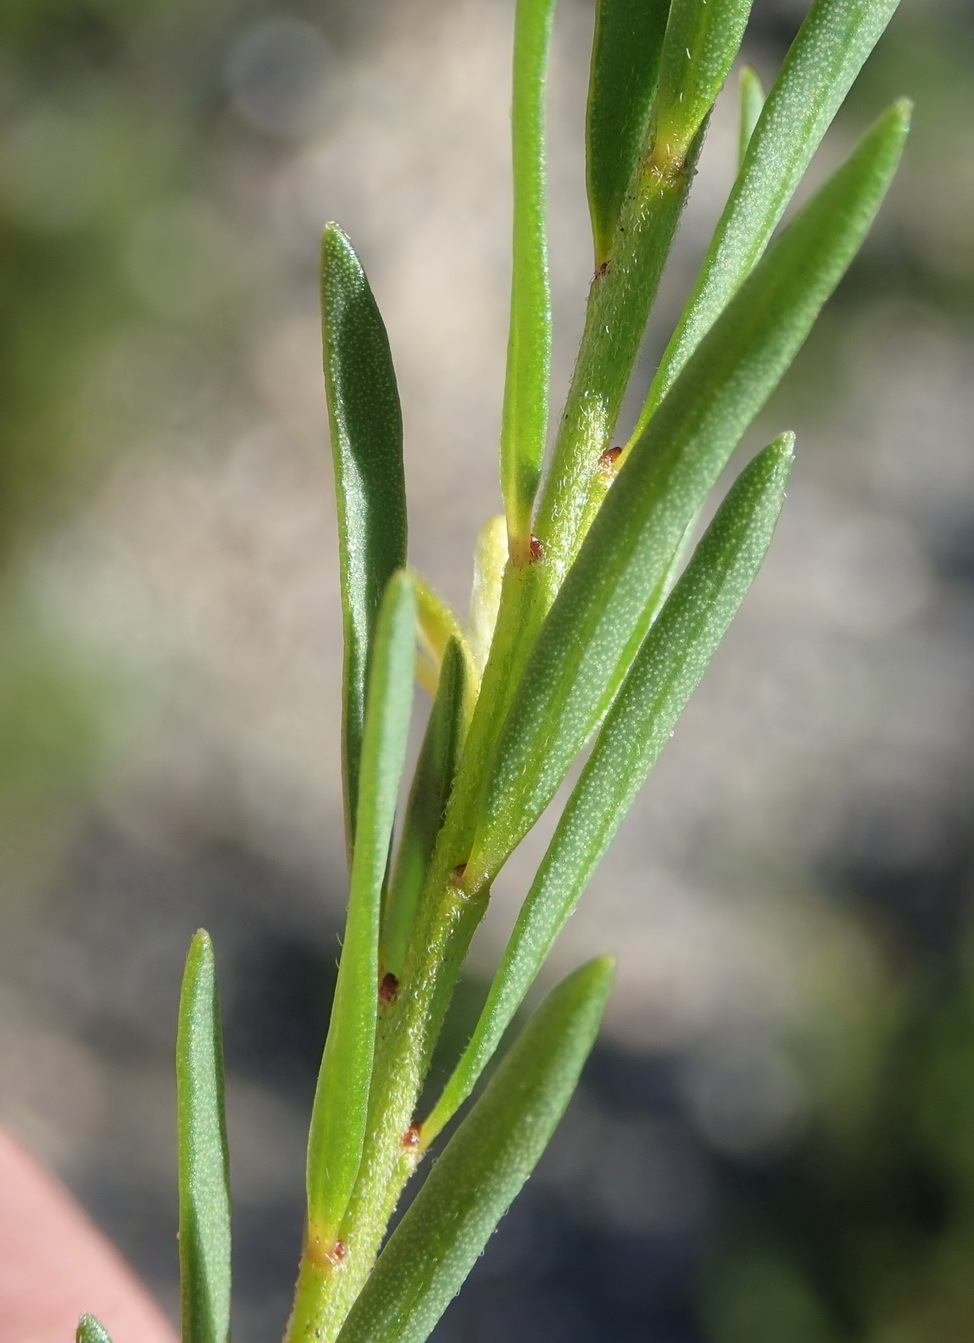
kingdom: Plantae
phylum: Tracheophyta
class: Magnoliopsida
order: Malpighiales
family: Peraceae
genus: Clutia
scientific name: Clutia ericoides
